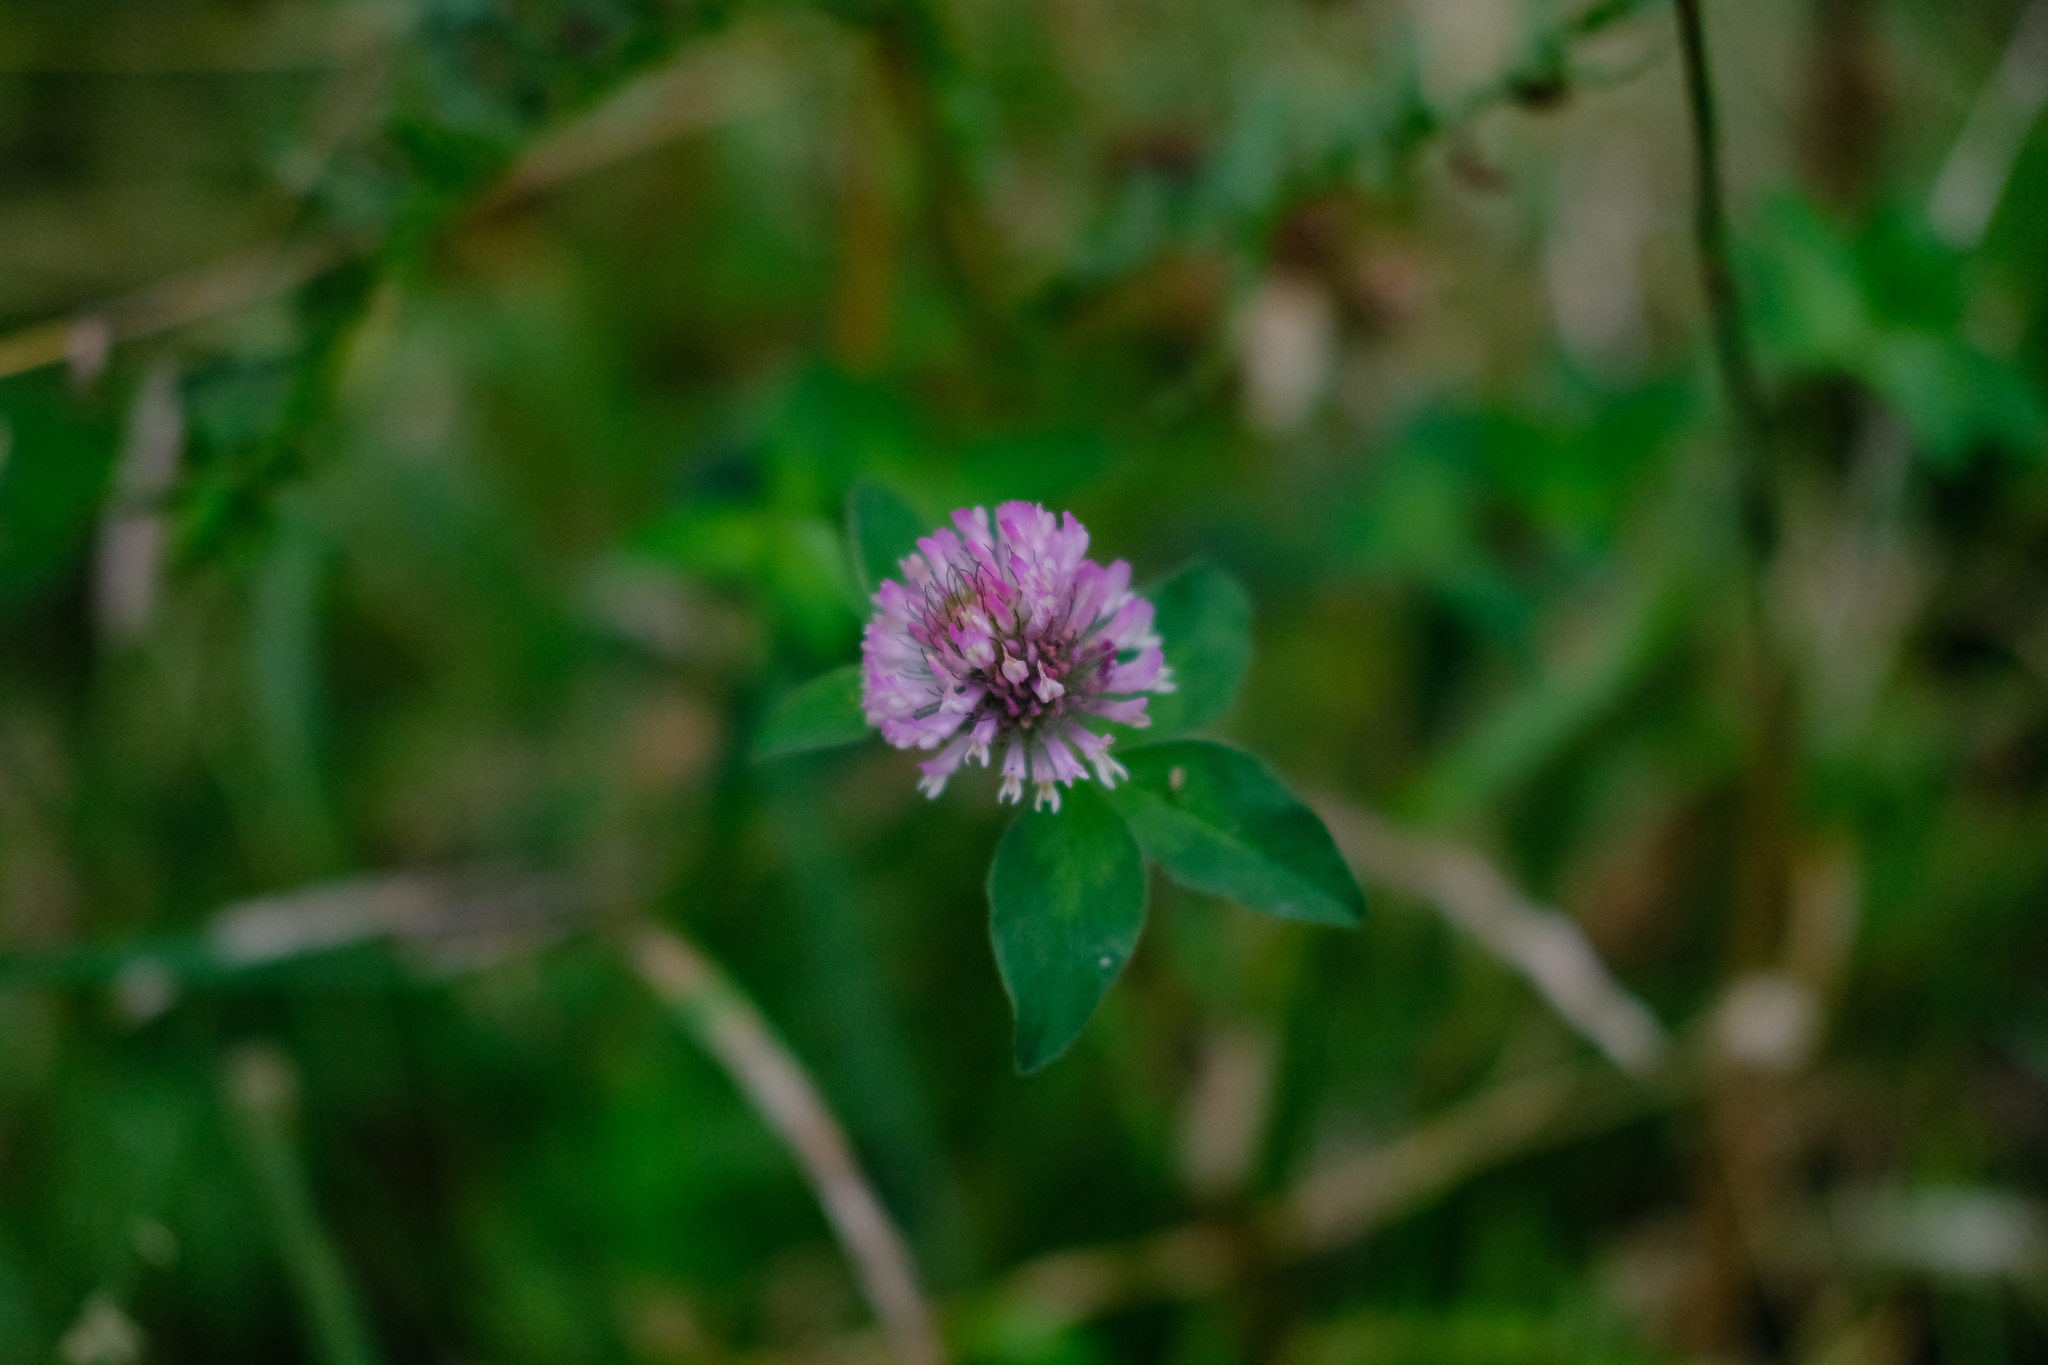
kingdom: Plantae
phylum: Tracheophyta
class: Magnoliopsida
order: Fabales
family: Fabaceae
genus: Trifolium
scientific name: Trifolium pratense
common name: Red clover
